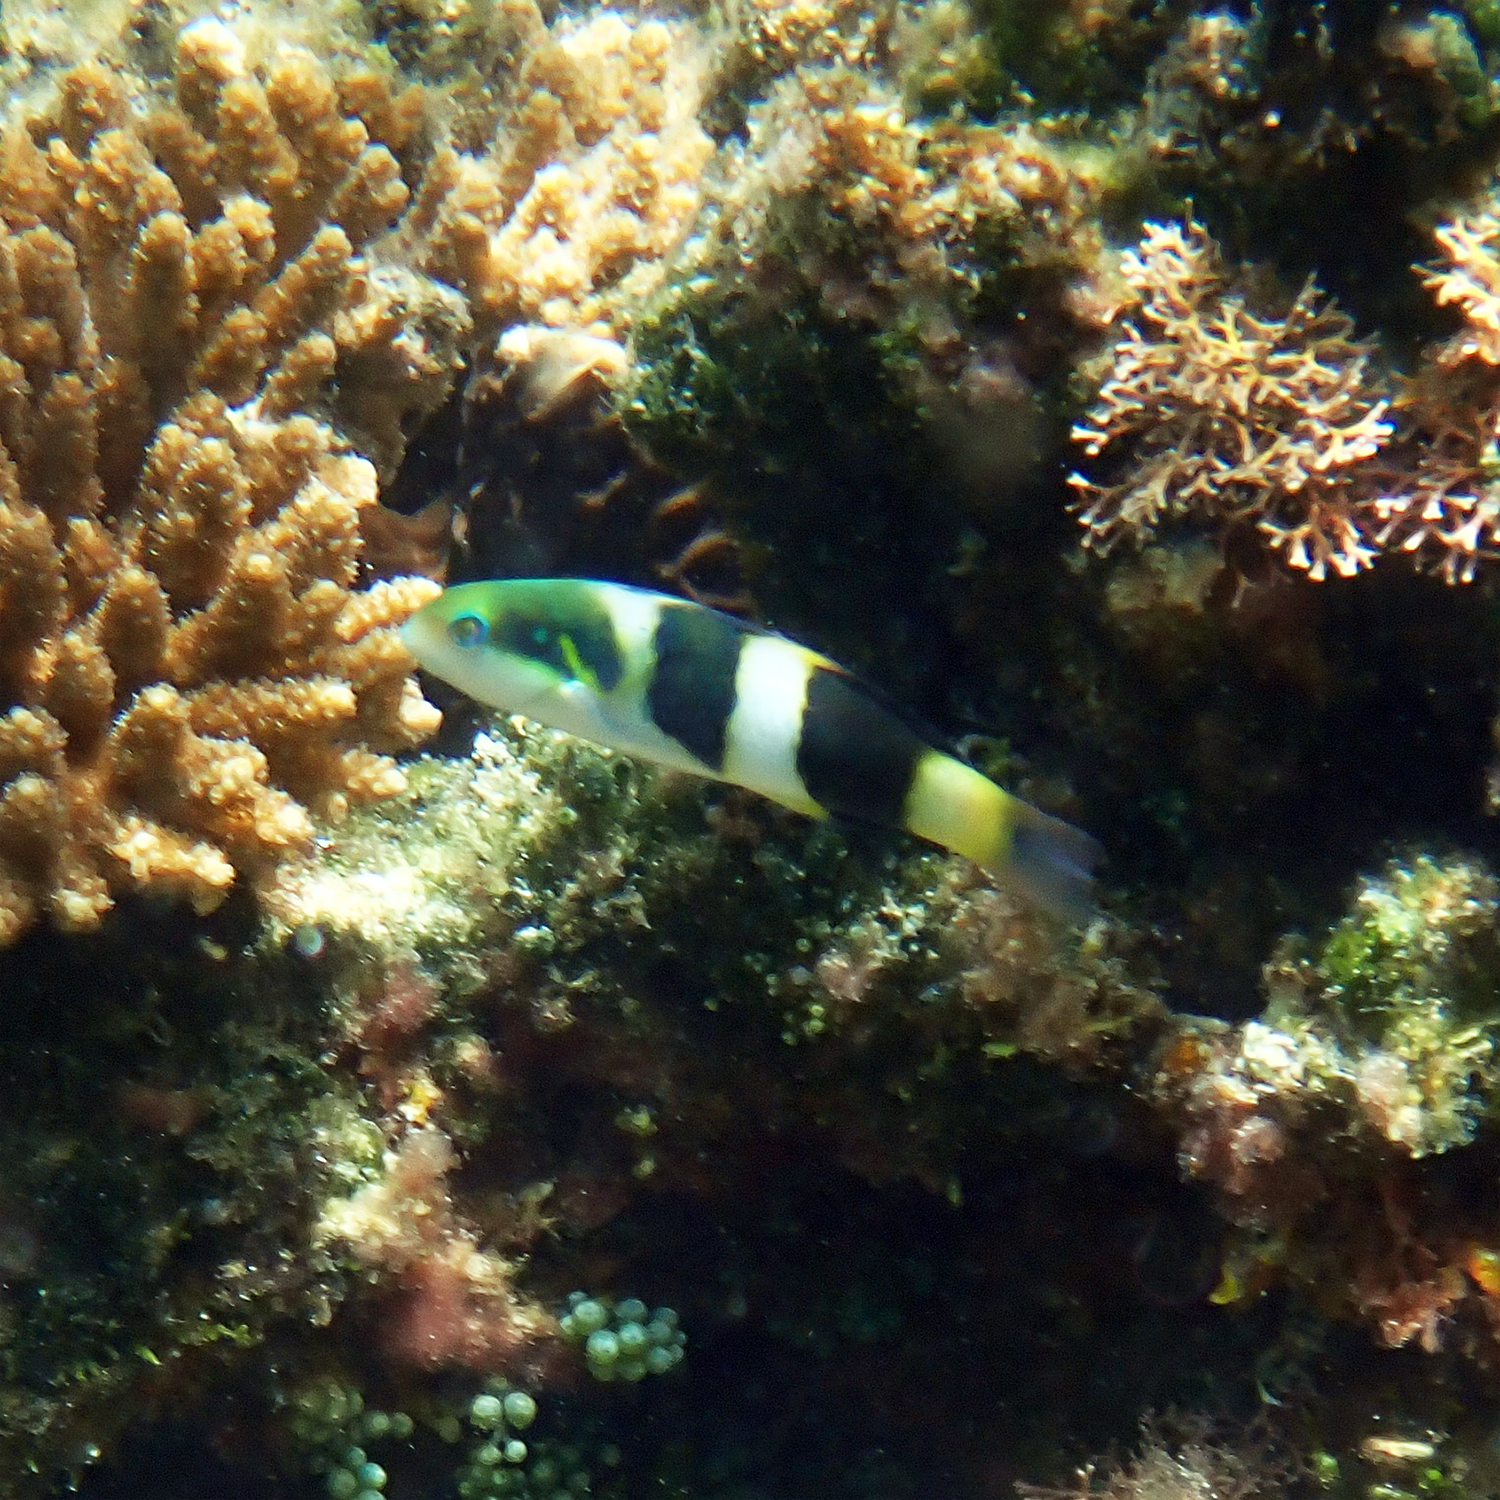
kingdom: Animalia
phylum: Chordata
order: Perciformes
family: Labridae
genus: Thalassoma
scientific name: Thalassoma nigrofasciatum
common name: Black-barred wrasse
